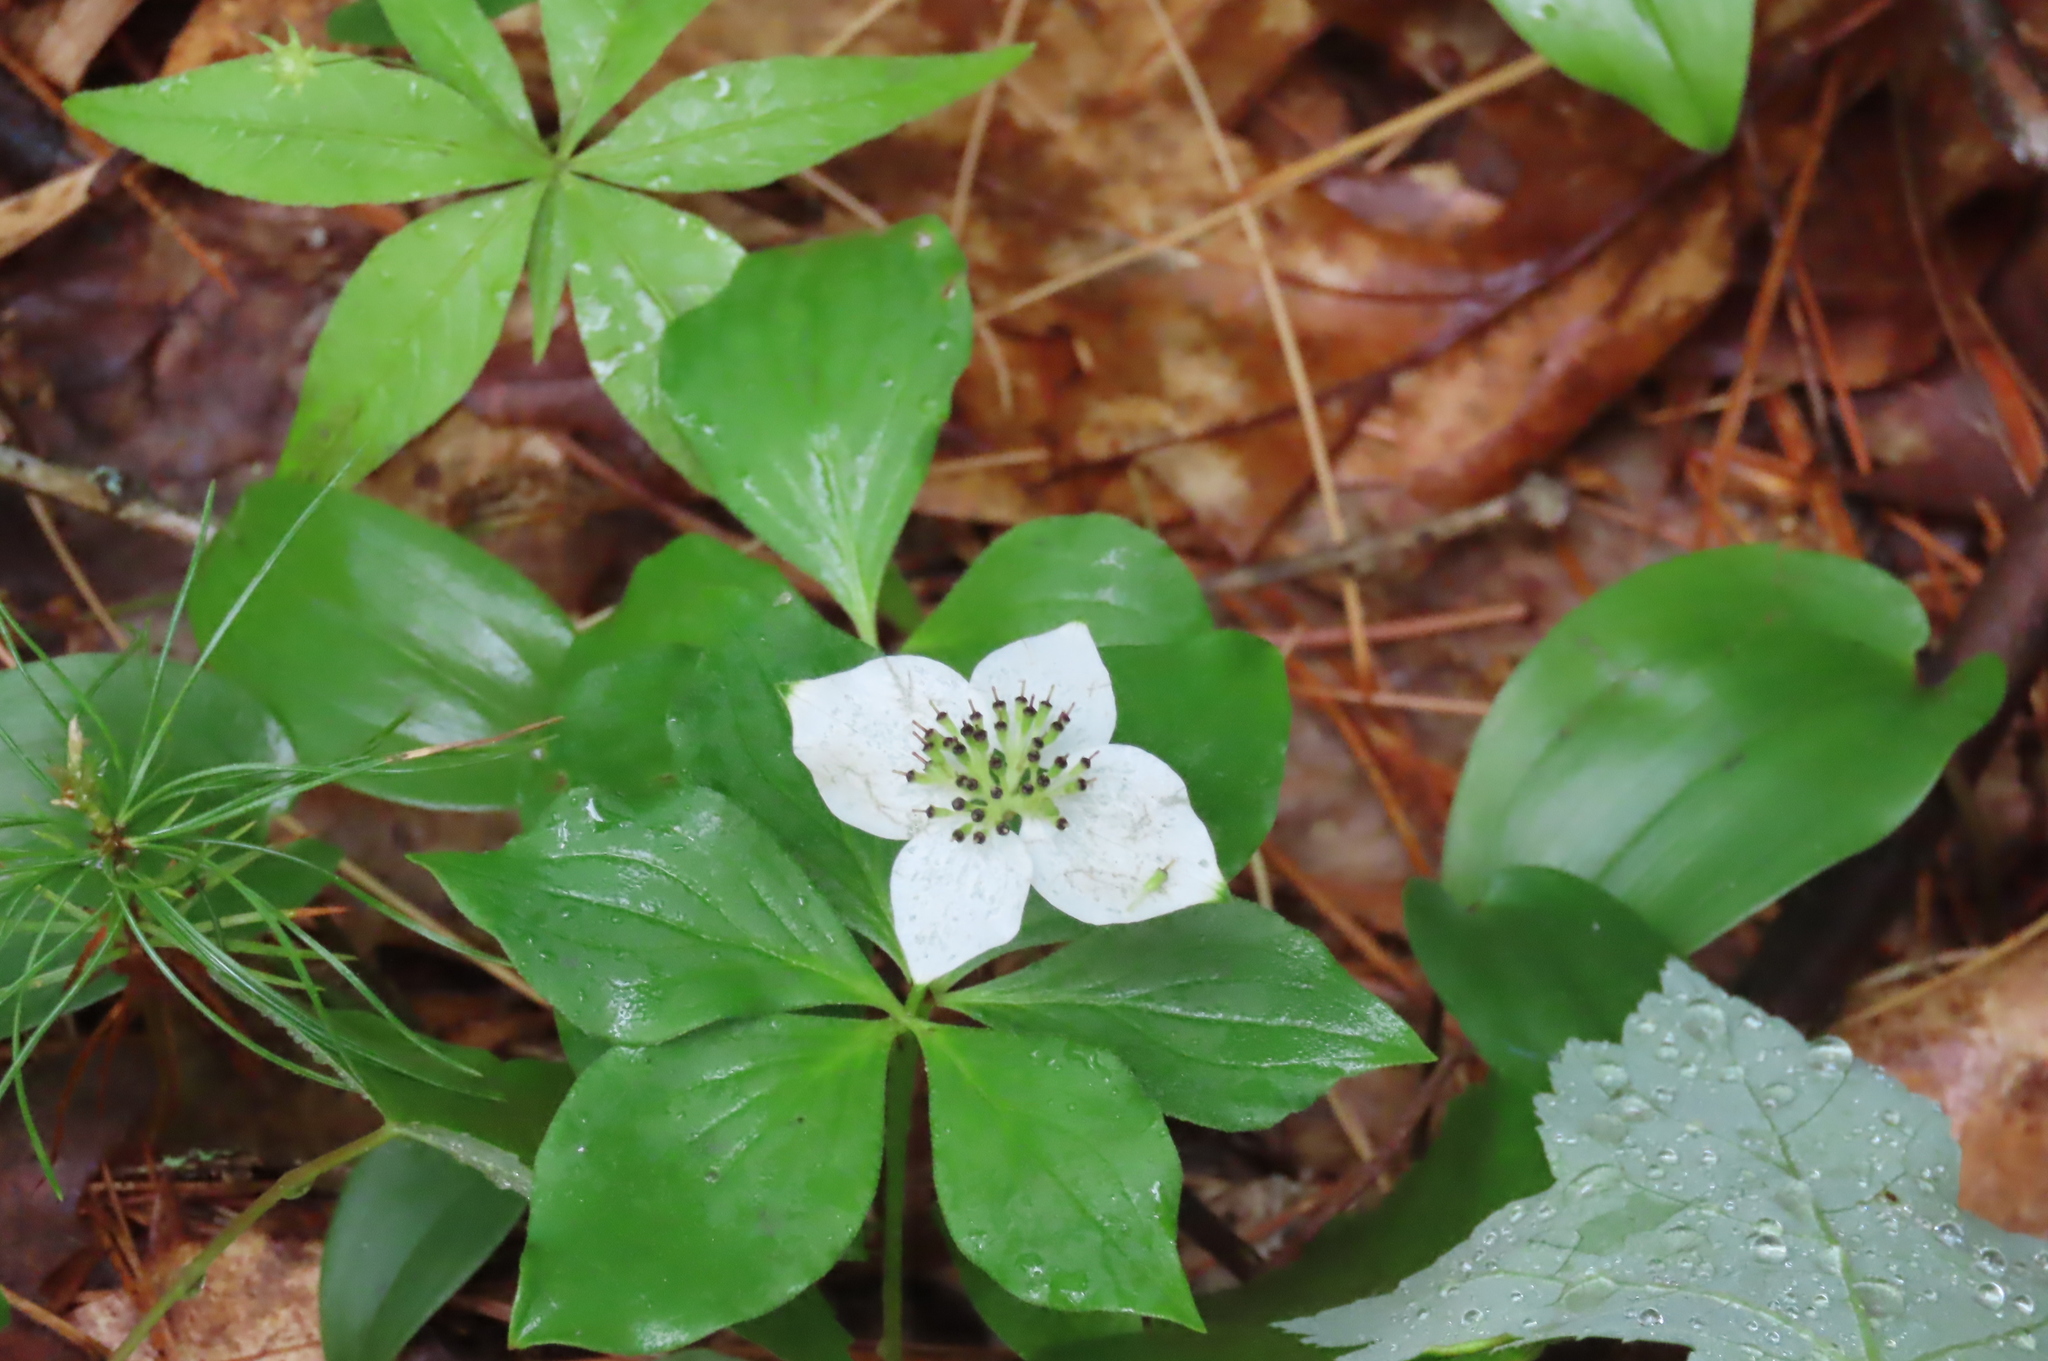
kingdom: Plantae
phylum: Tracheophyta
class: Magnoliopsida
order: Cornales
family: Cornaceae
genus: Cornus
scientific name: Cornus canadensis
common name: Creeping dogwood
